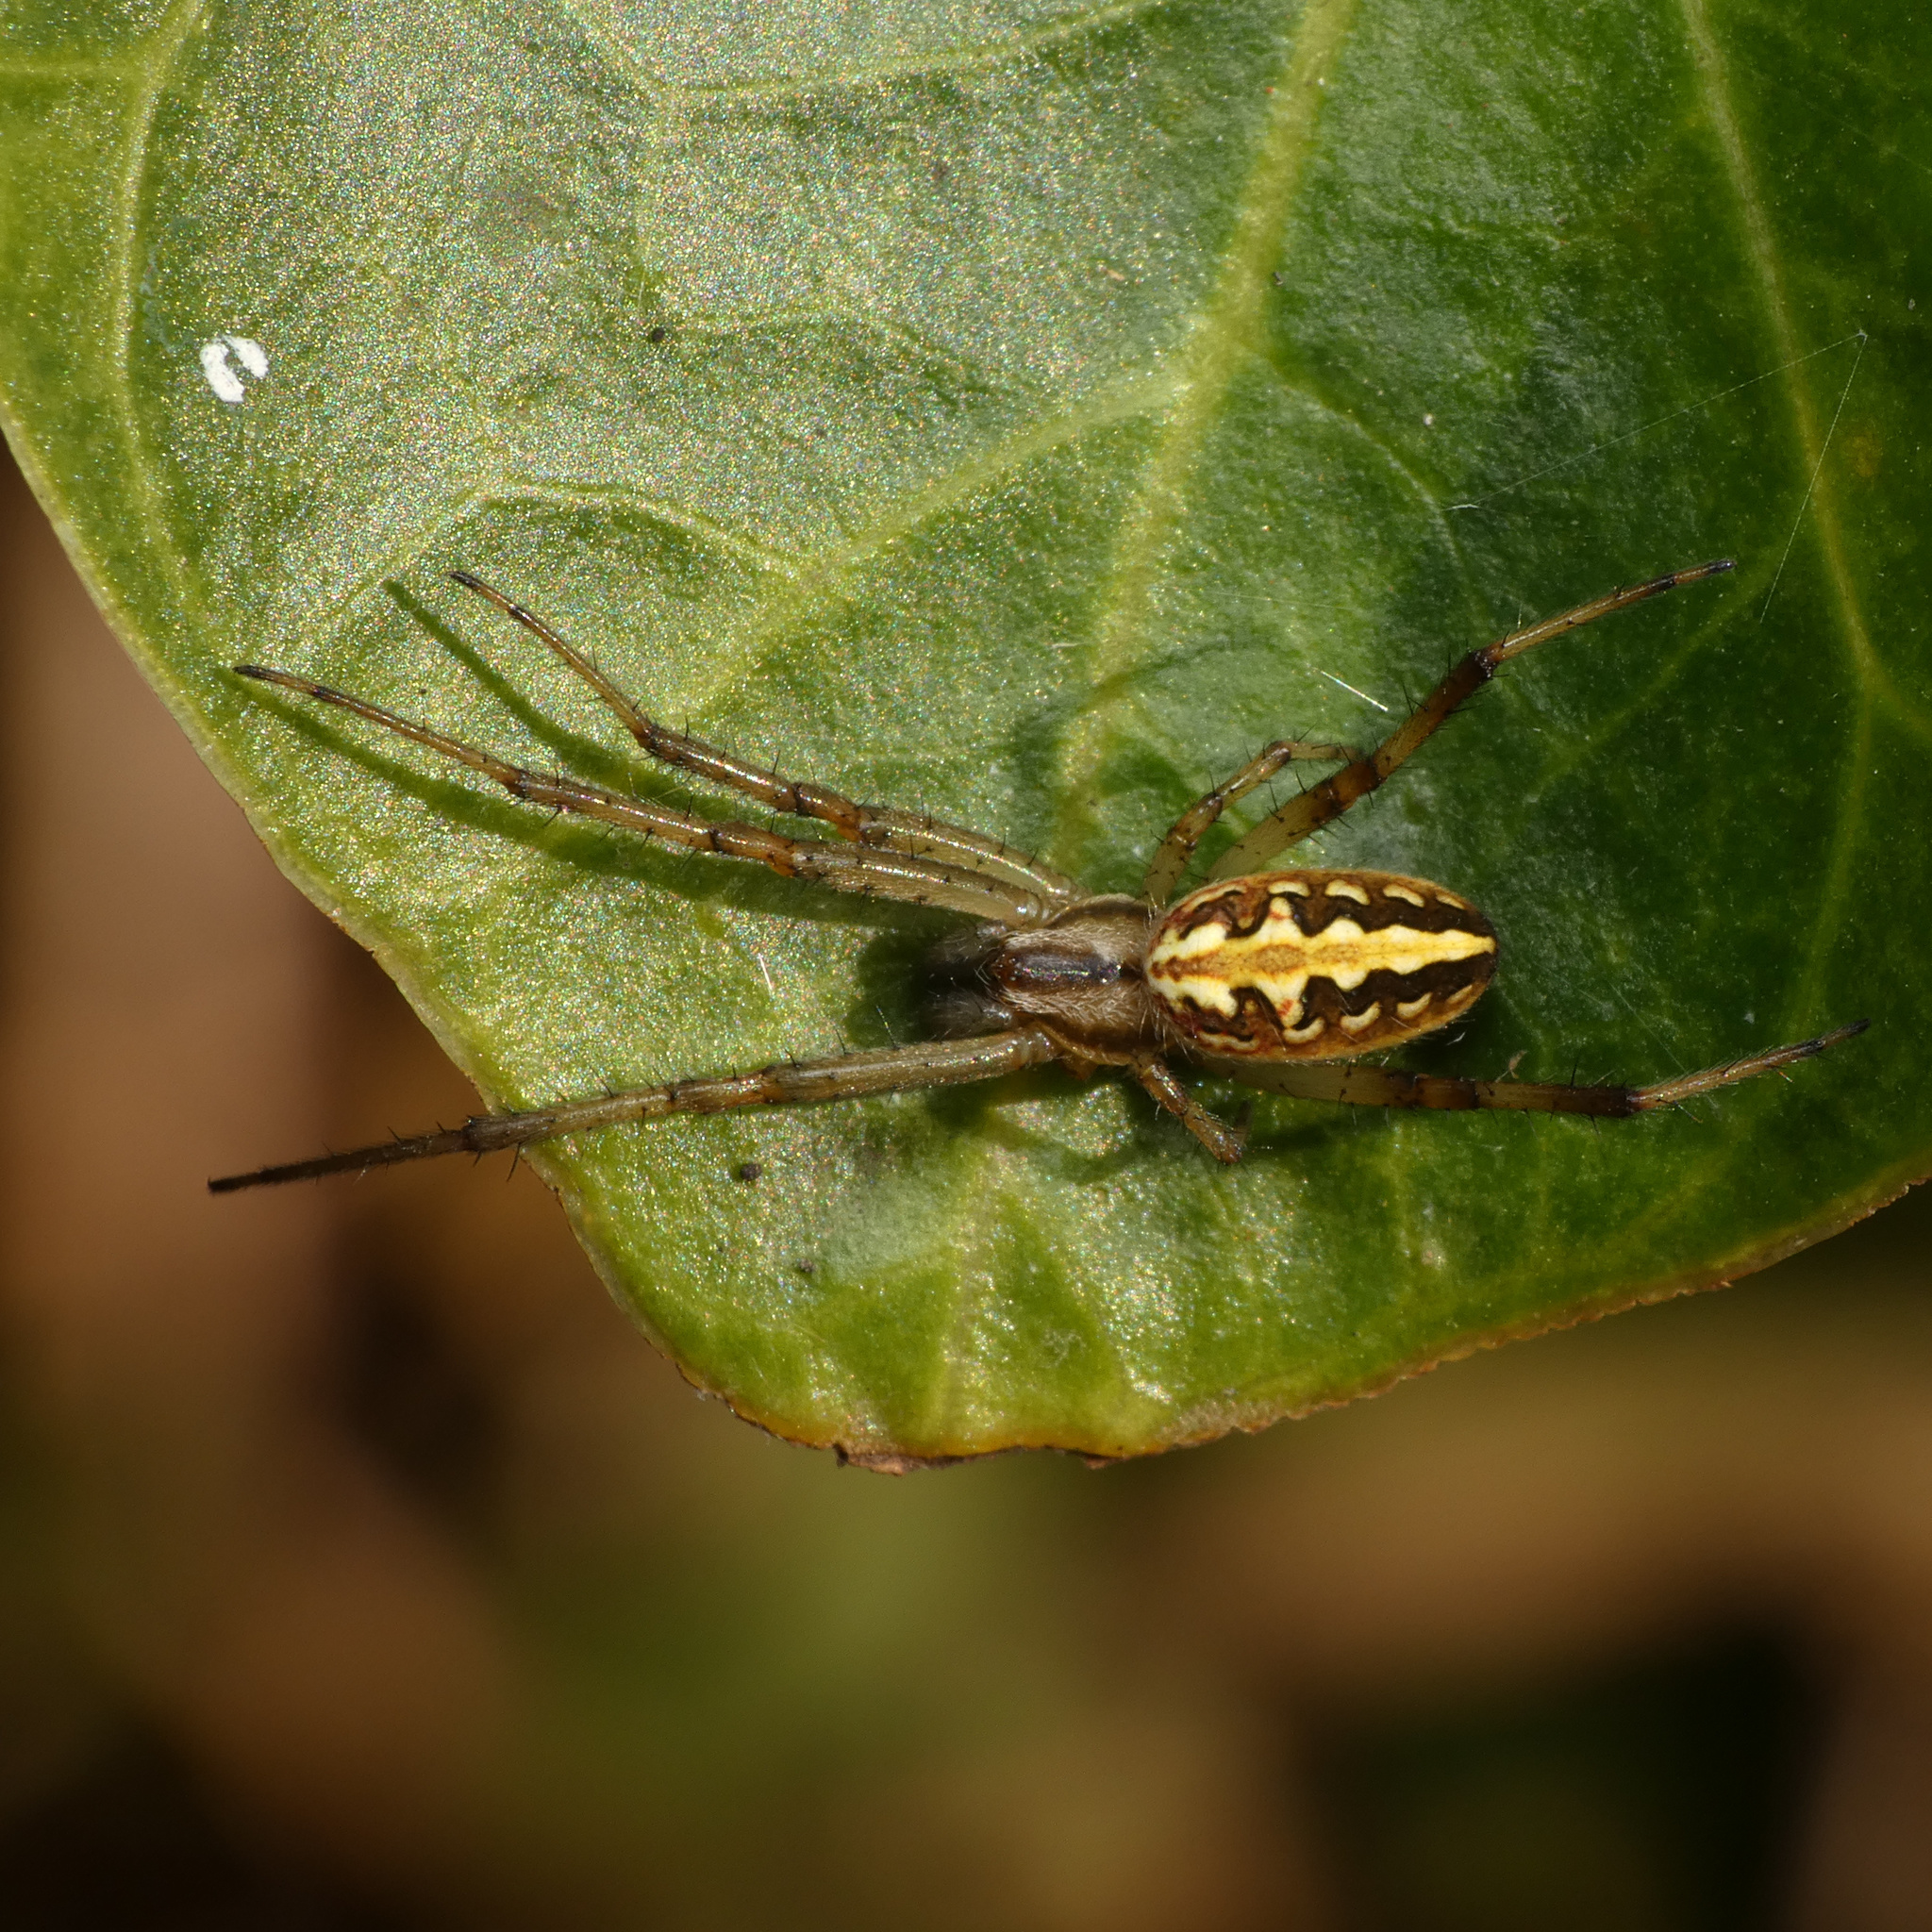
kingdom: Animalia
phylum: Arthropoda
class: Arachnida
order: Araneae
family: Araneidae
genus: Neoscona
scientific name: Neoscona moreli
